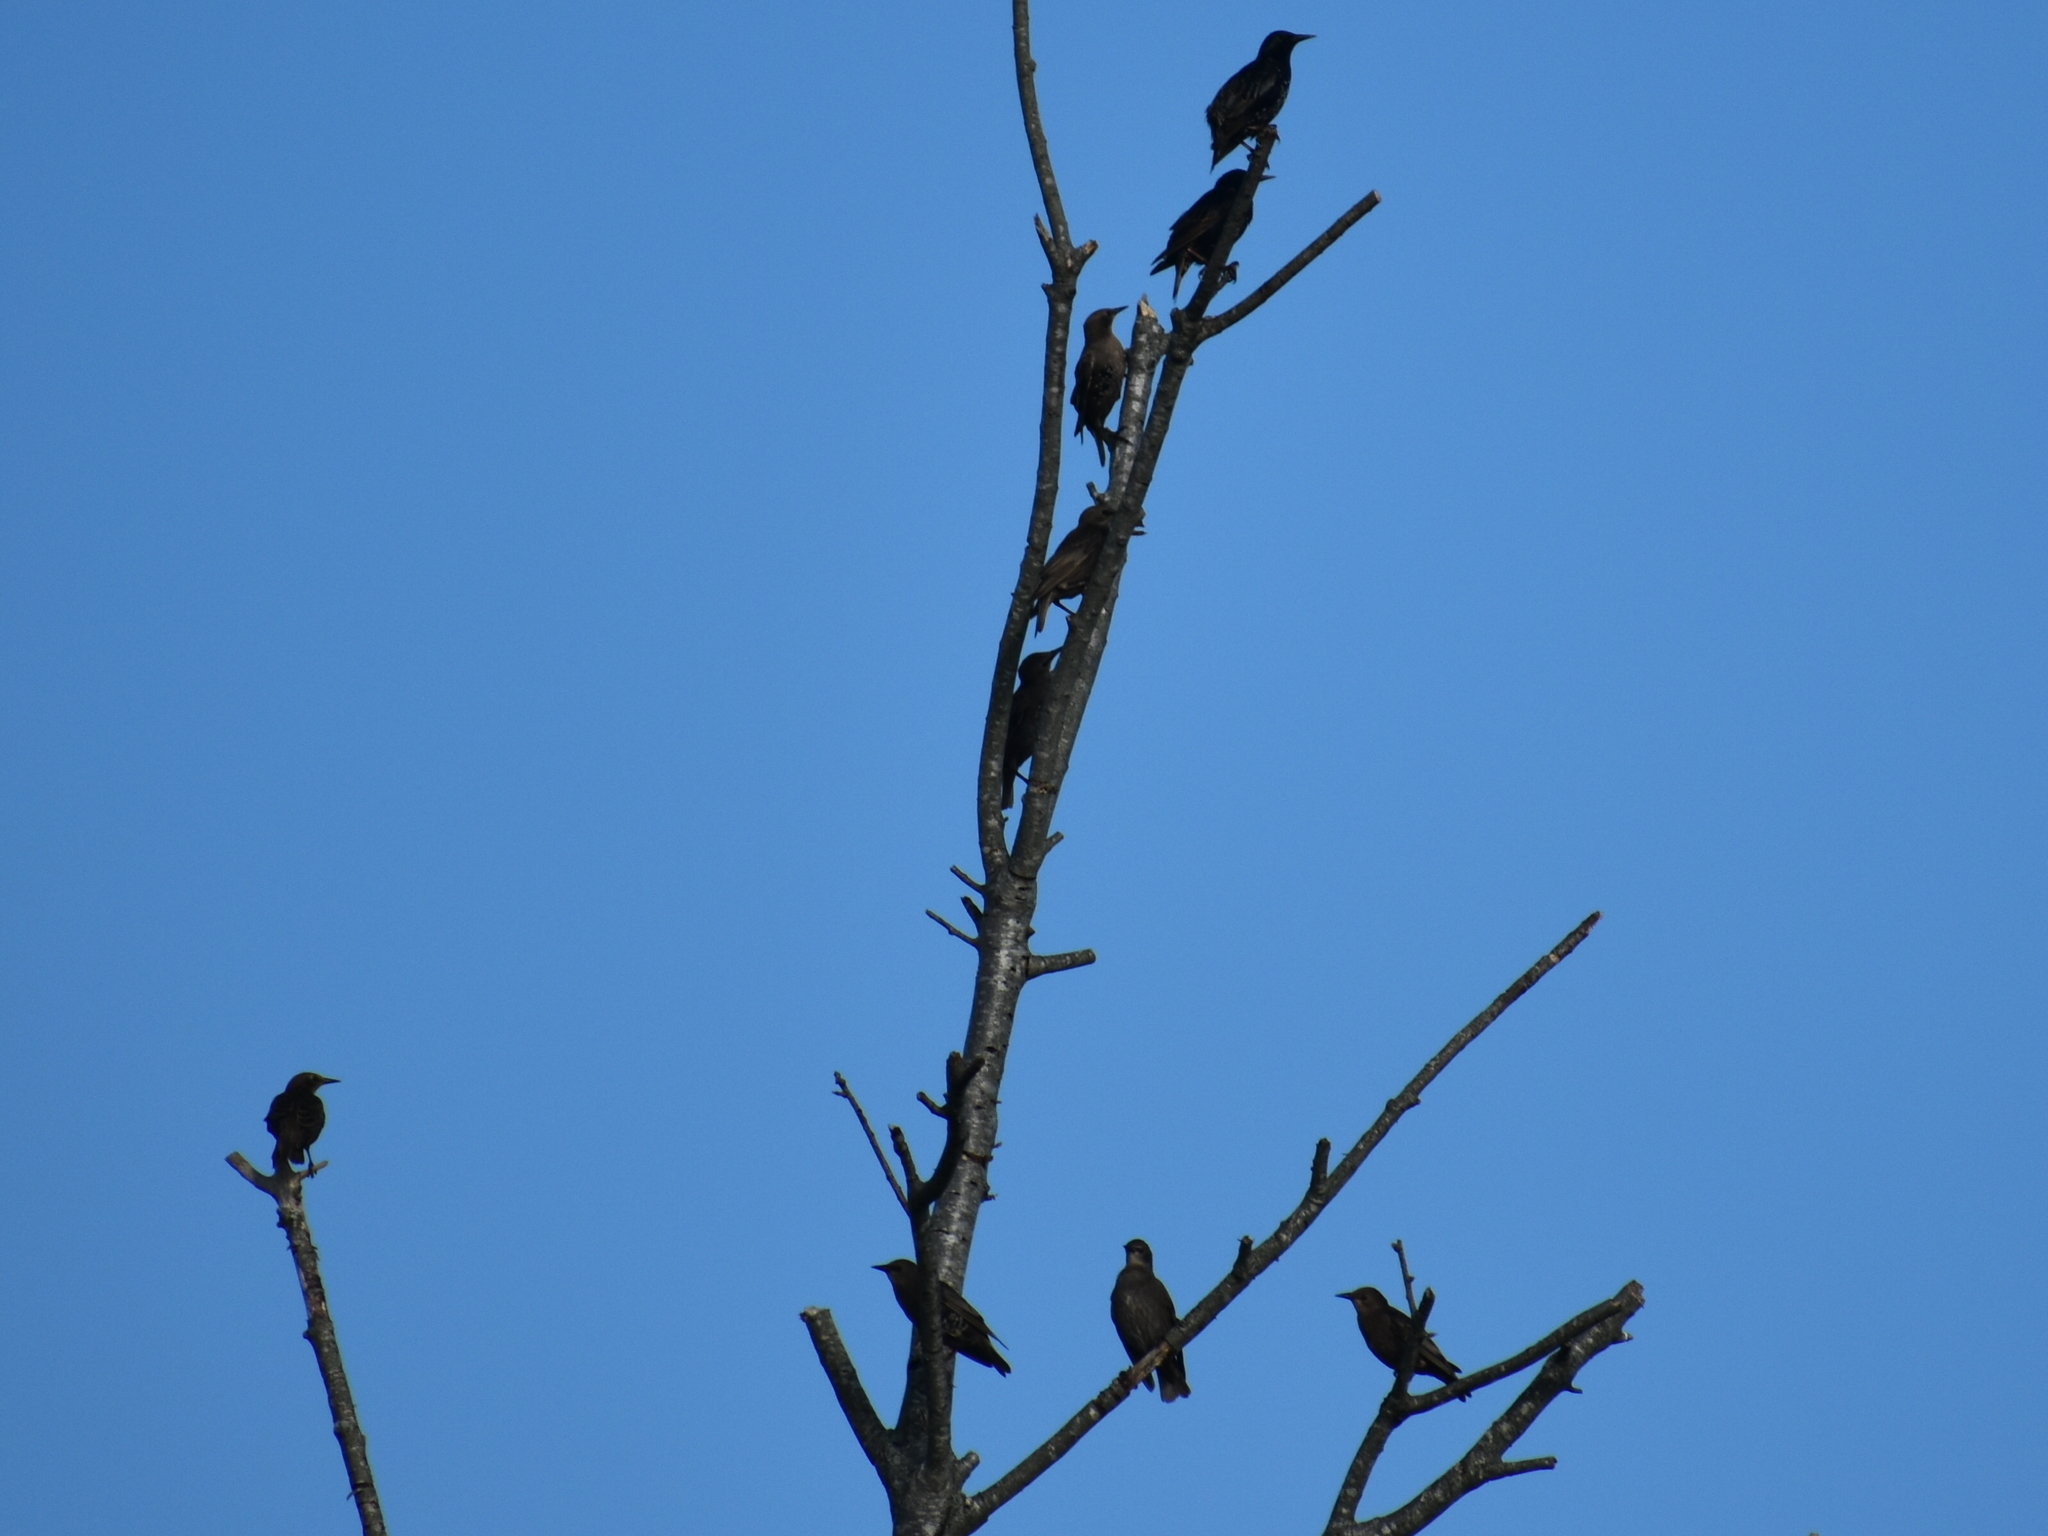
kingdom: Animalia
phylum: Chordata
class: Aves
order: Passeriformes
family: Sturnidae
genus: Sturnus
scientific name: Sturnus vulgaris
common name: Common starling
